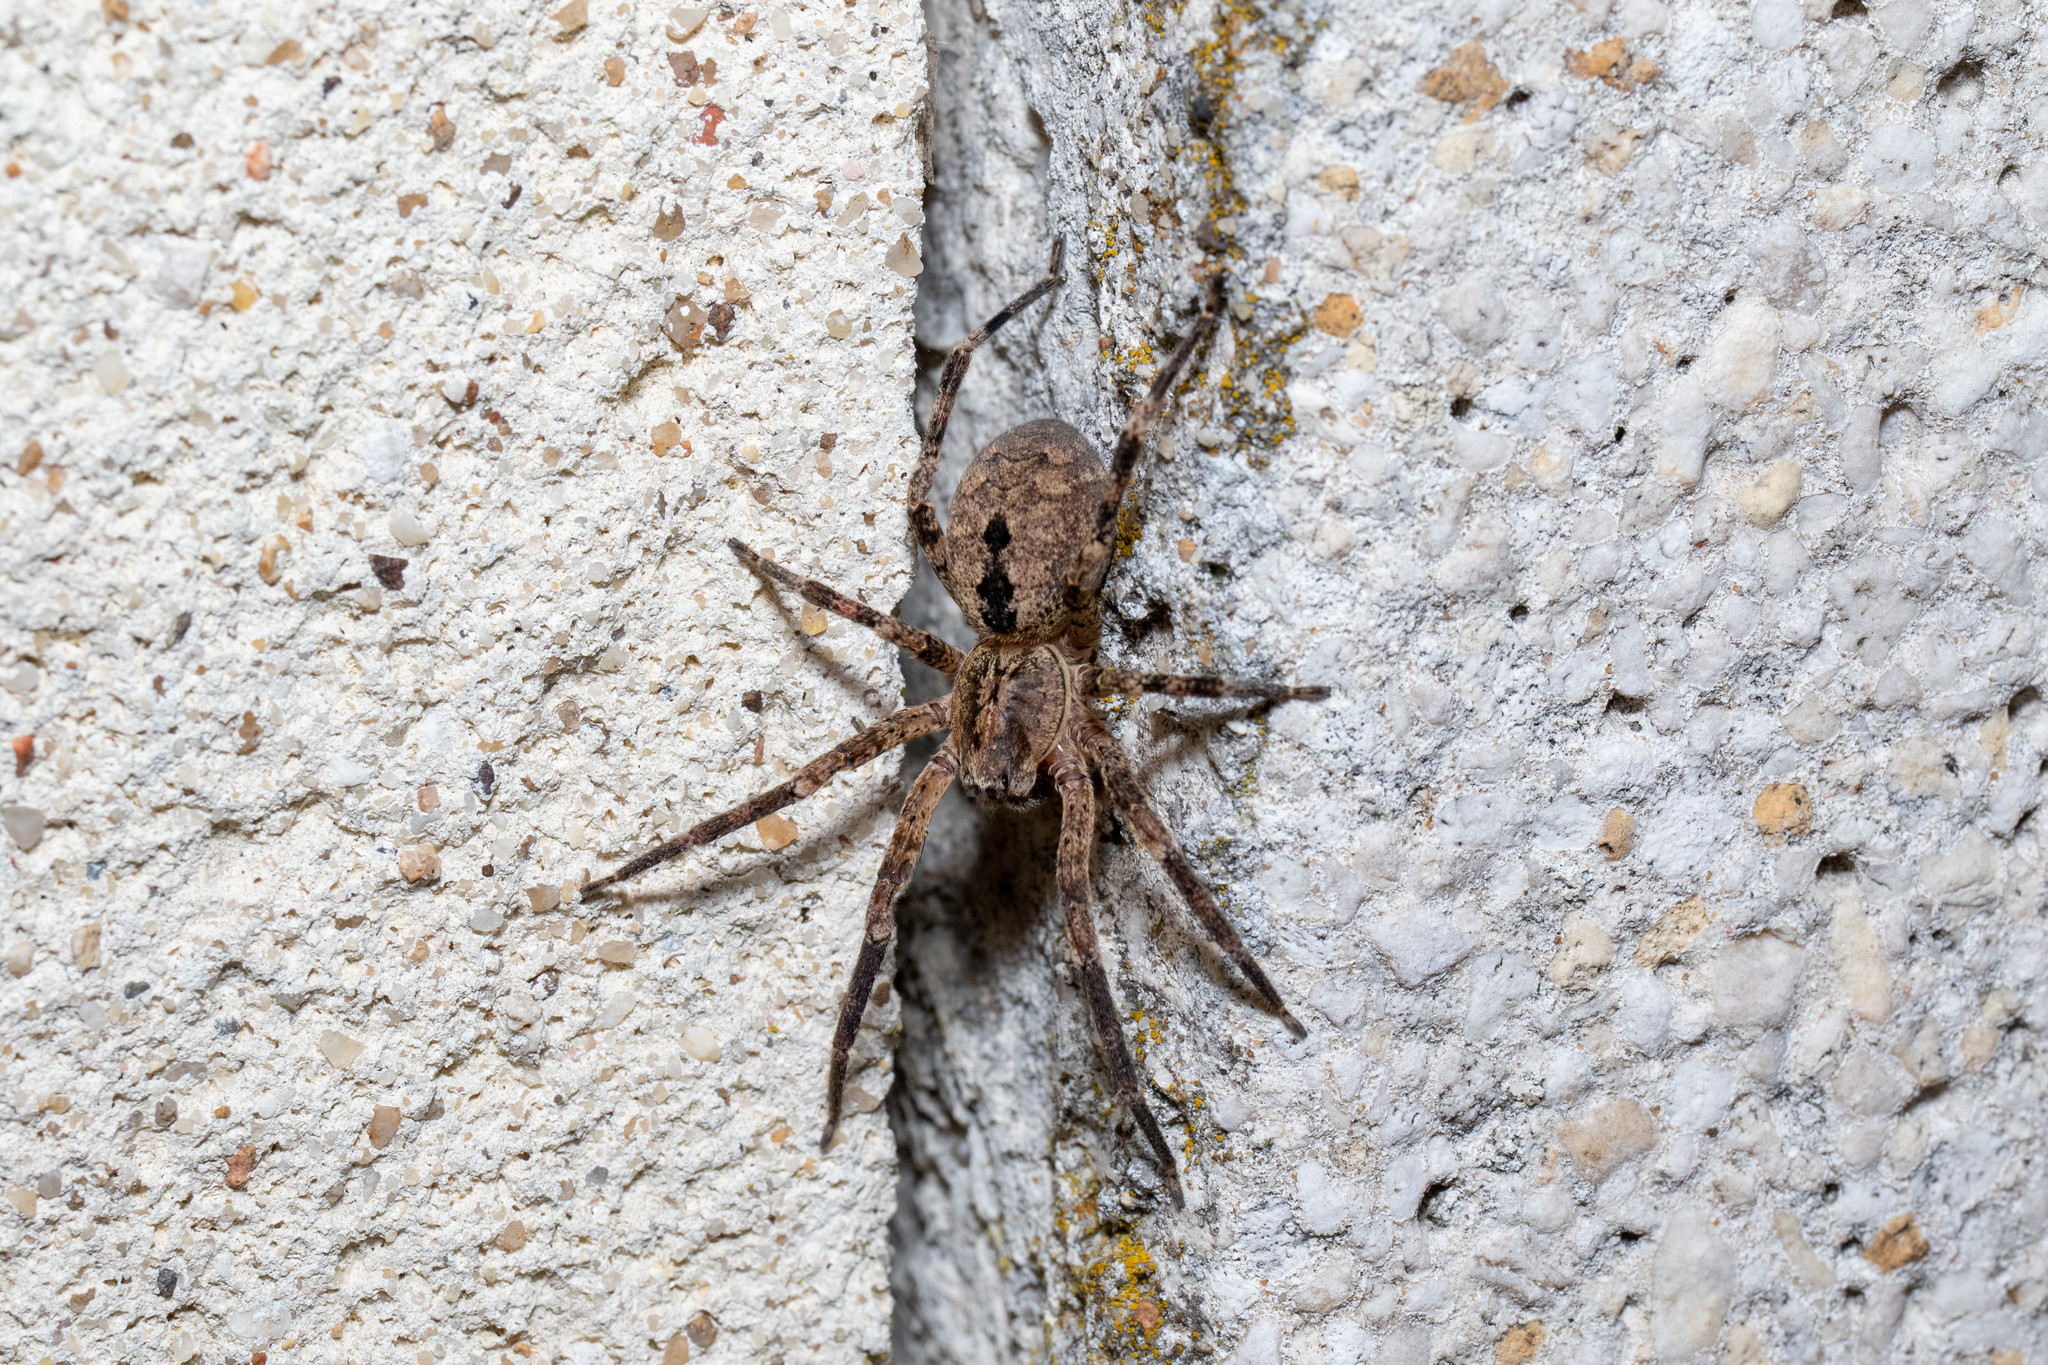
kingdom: Animalia
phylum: Arthropoda
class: Arachnida
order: Araneae
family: Zoropsidae
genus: Zoropsis
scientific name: Zoropsis spinimana
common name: Zoropsid spider
